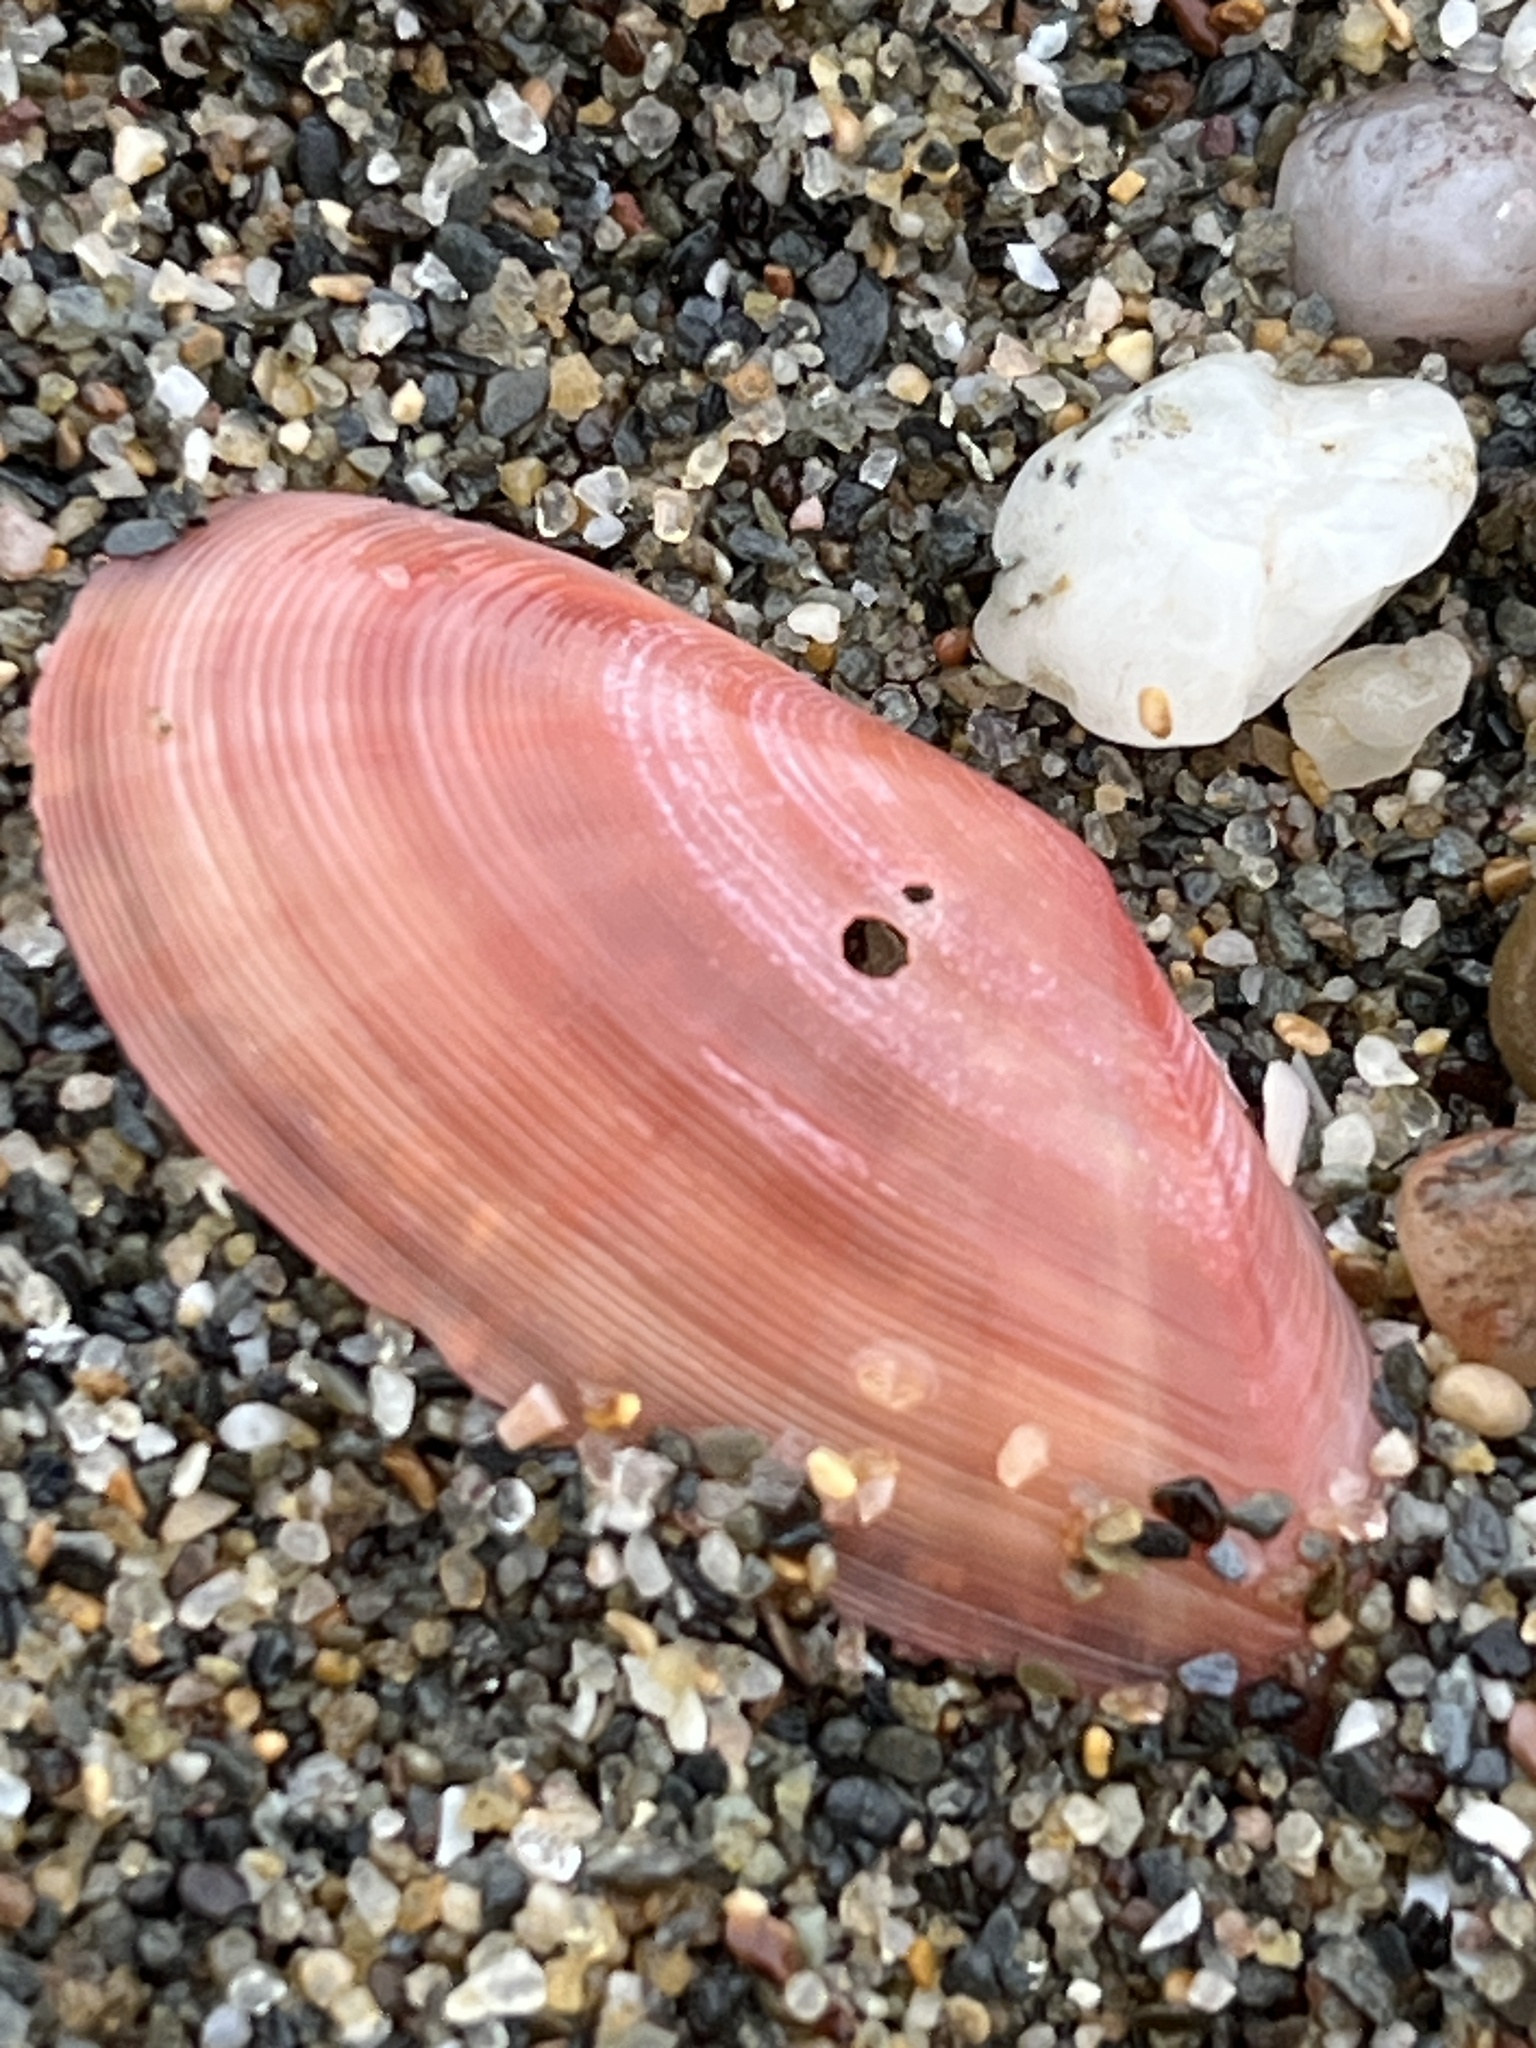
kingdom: Animalia
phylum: Mollusca
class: Bivalvia
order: Cardiida
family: Tellinidae
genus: Moerella
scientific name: Moerella pulchella
